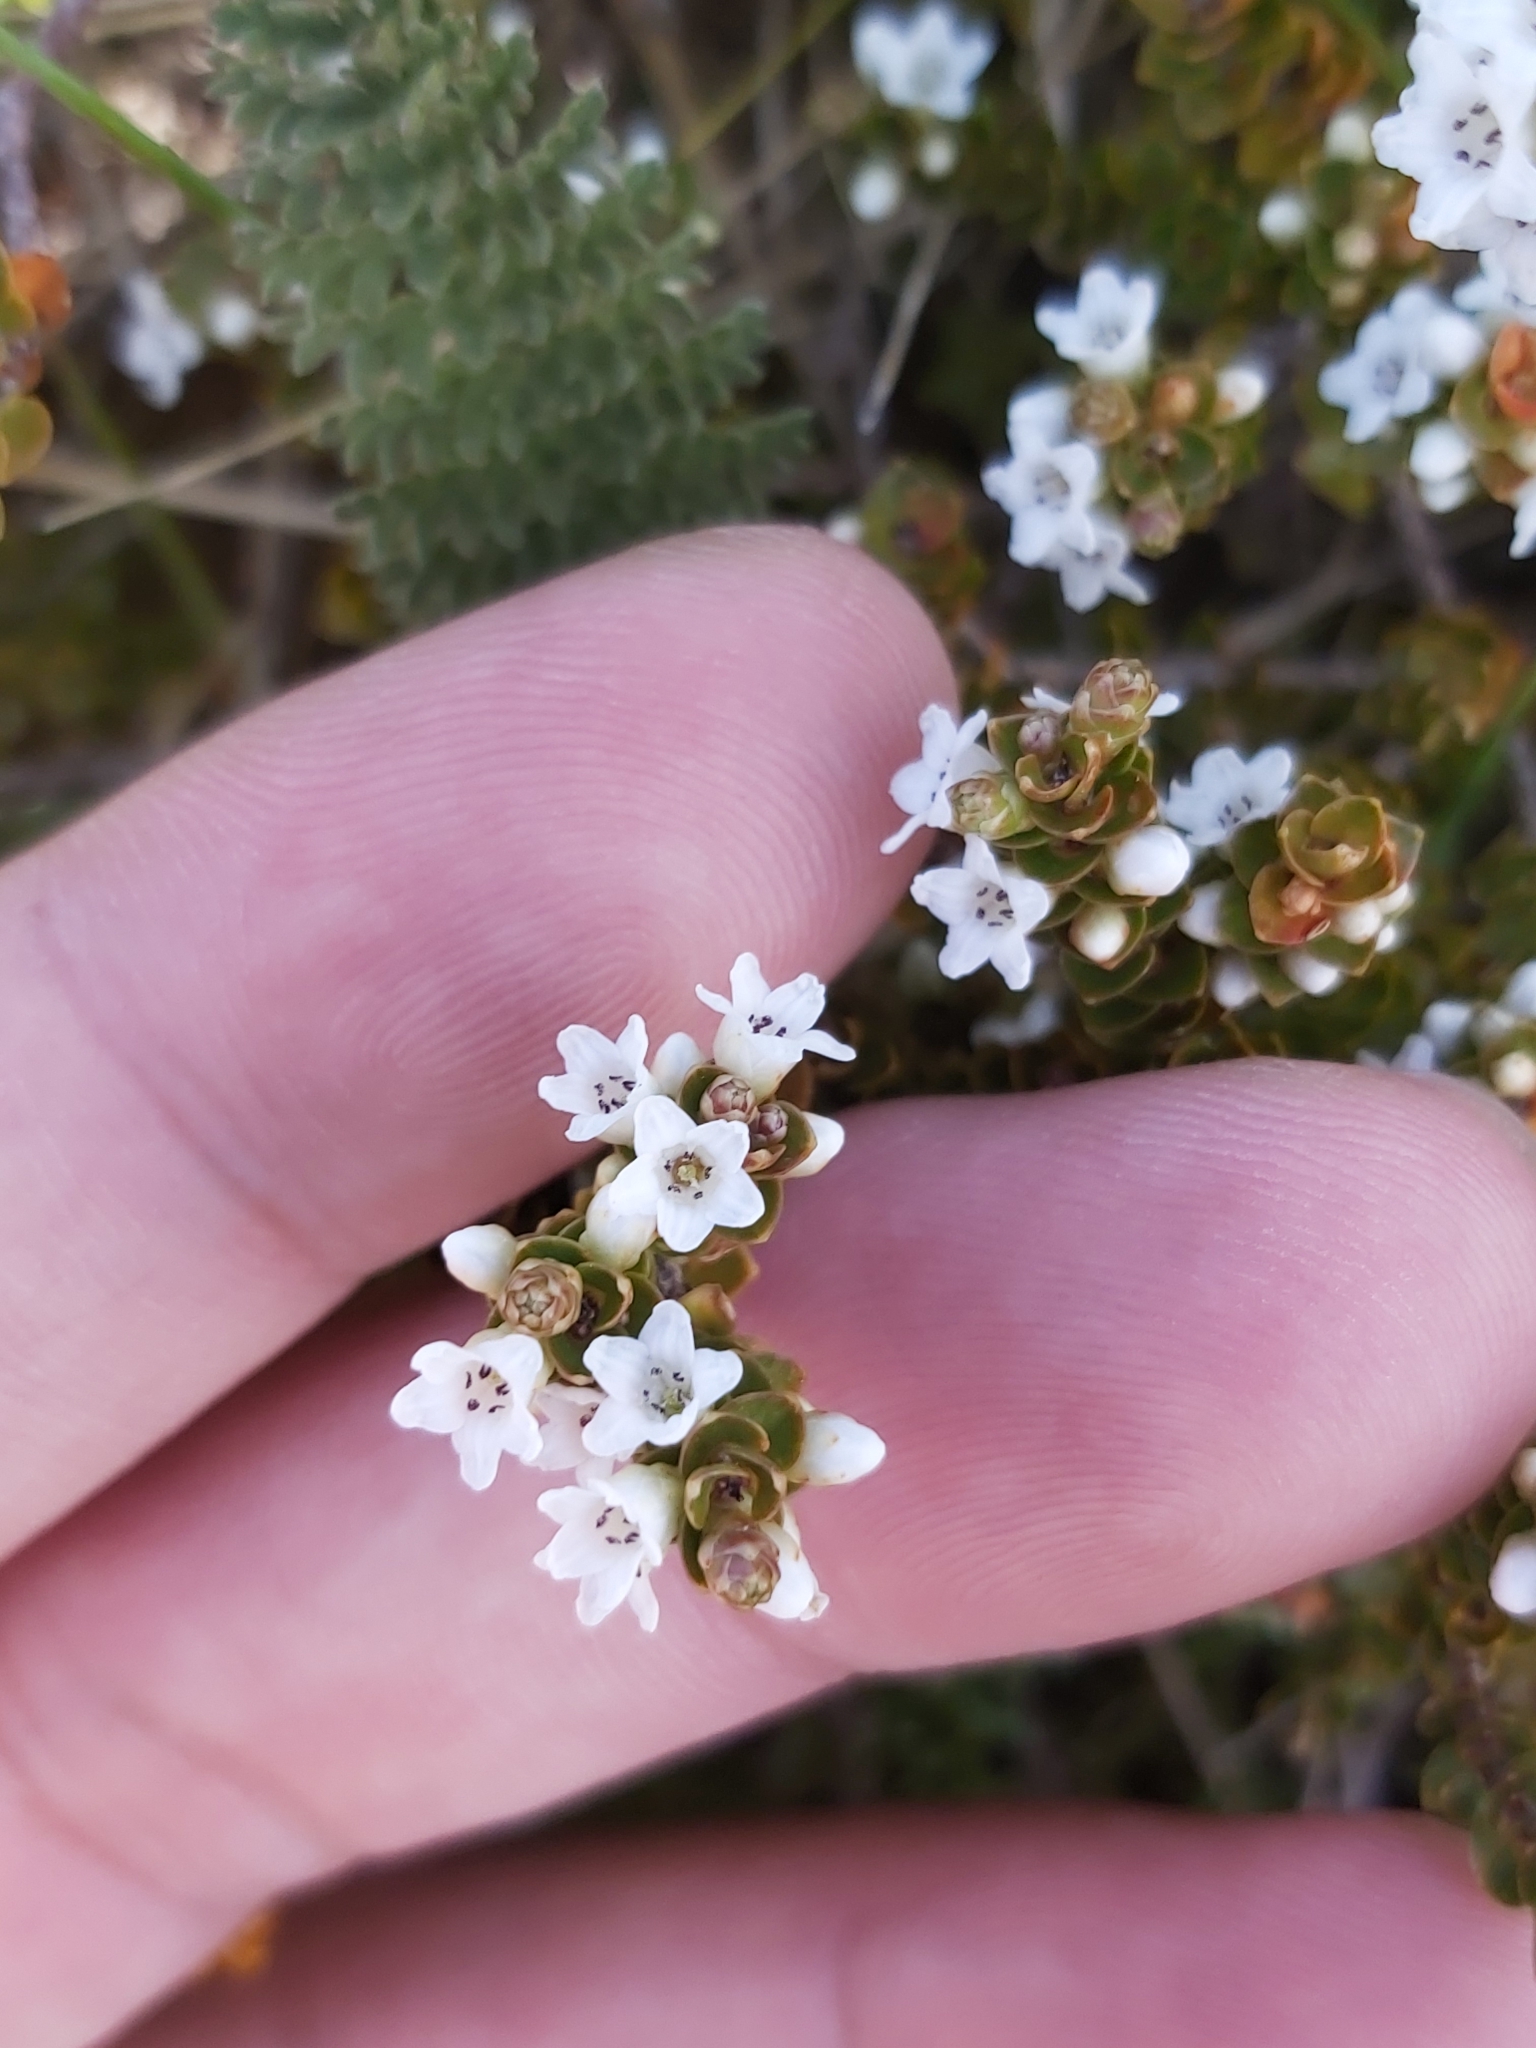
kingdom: Plantae
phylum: Tracheophyta
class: Magnoliopsida
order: Ericales
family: Ericaceae
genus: Epacris
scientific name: Epacris microphylla
